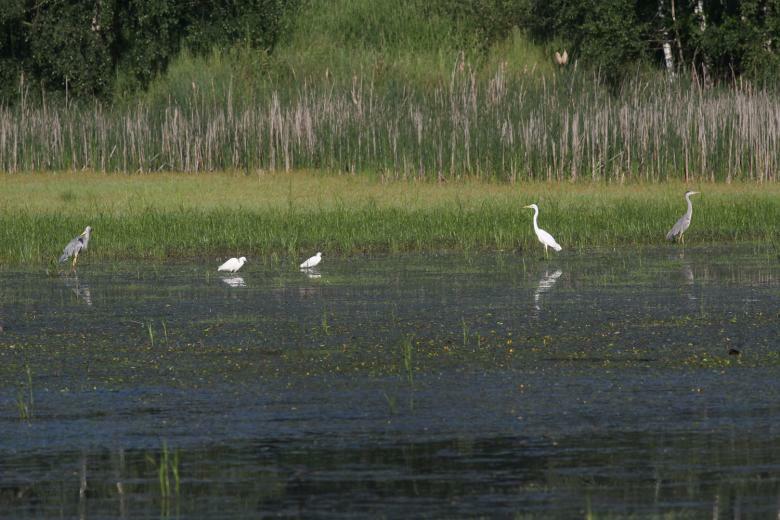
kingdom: Animalia
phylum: Chordata
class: Aves
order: Pelecaniformes
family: Ardeidae
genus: Egretta
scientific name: Egretta garzetta
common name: Little egret
